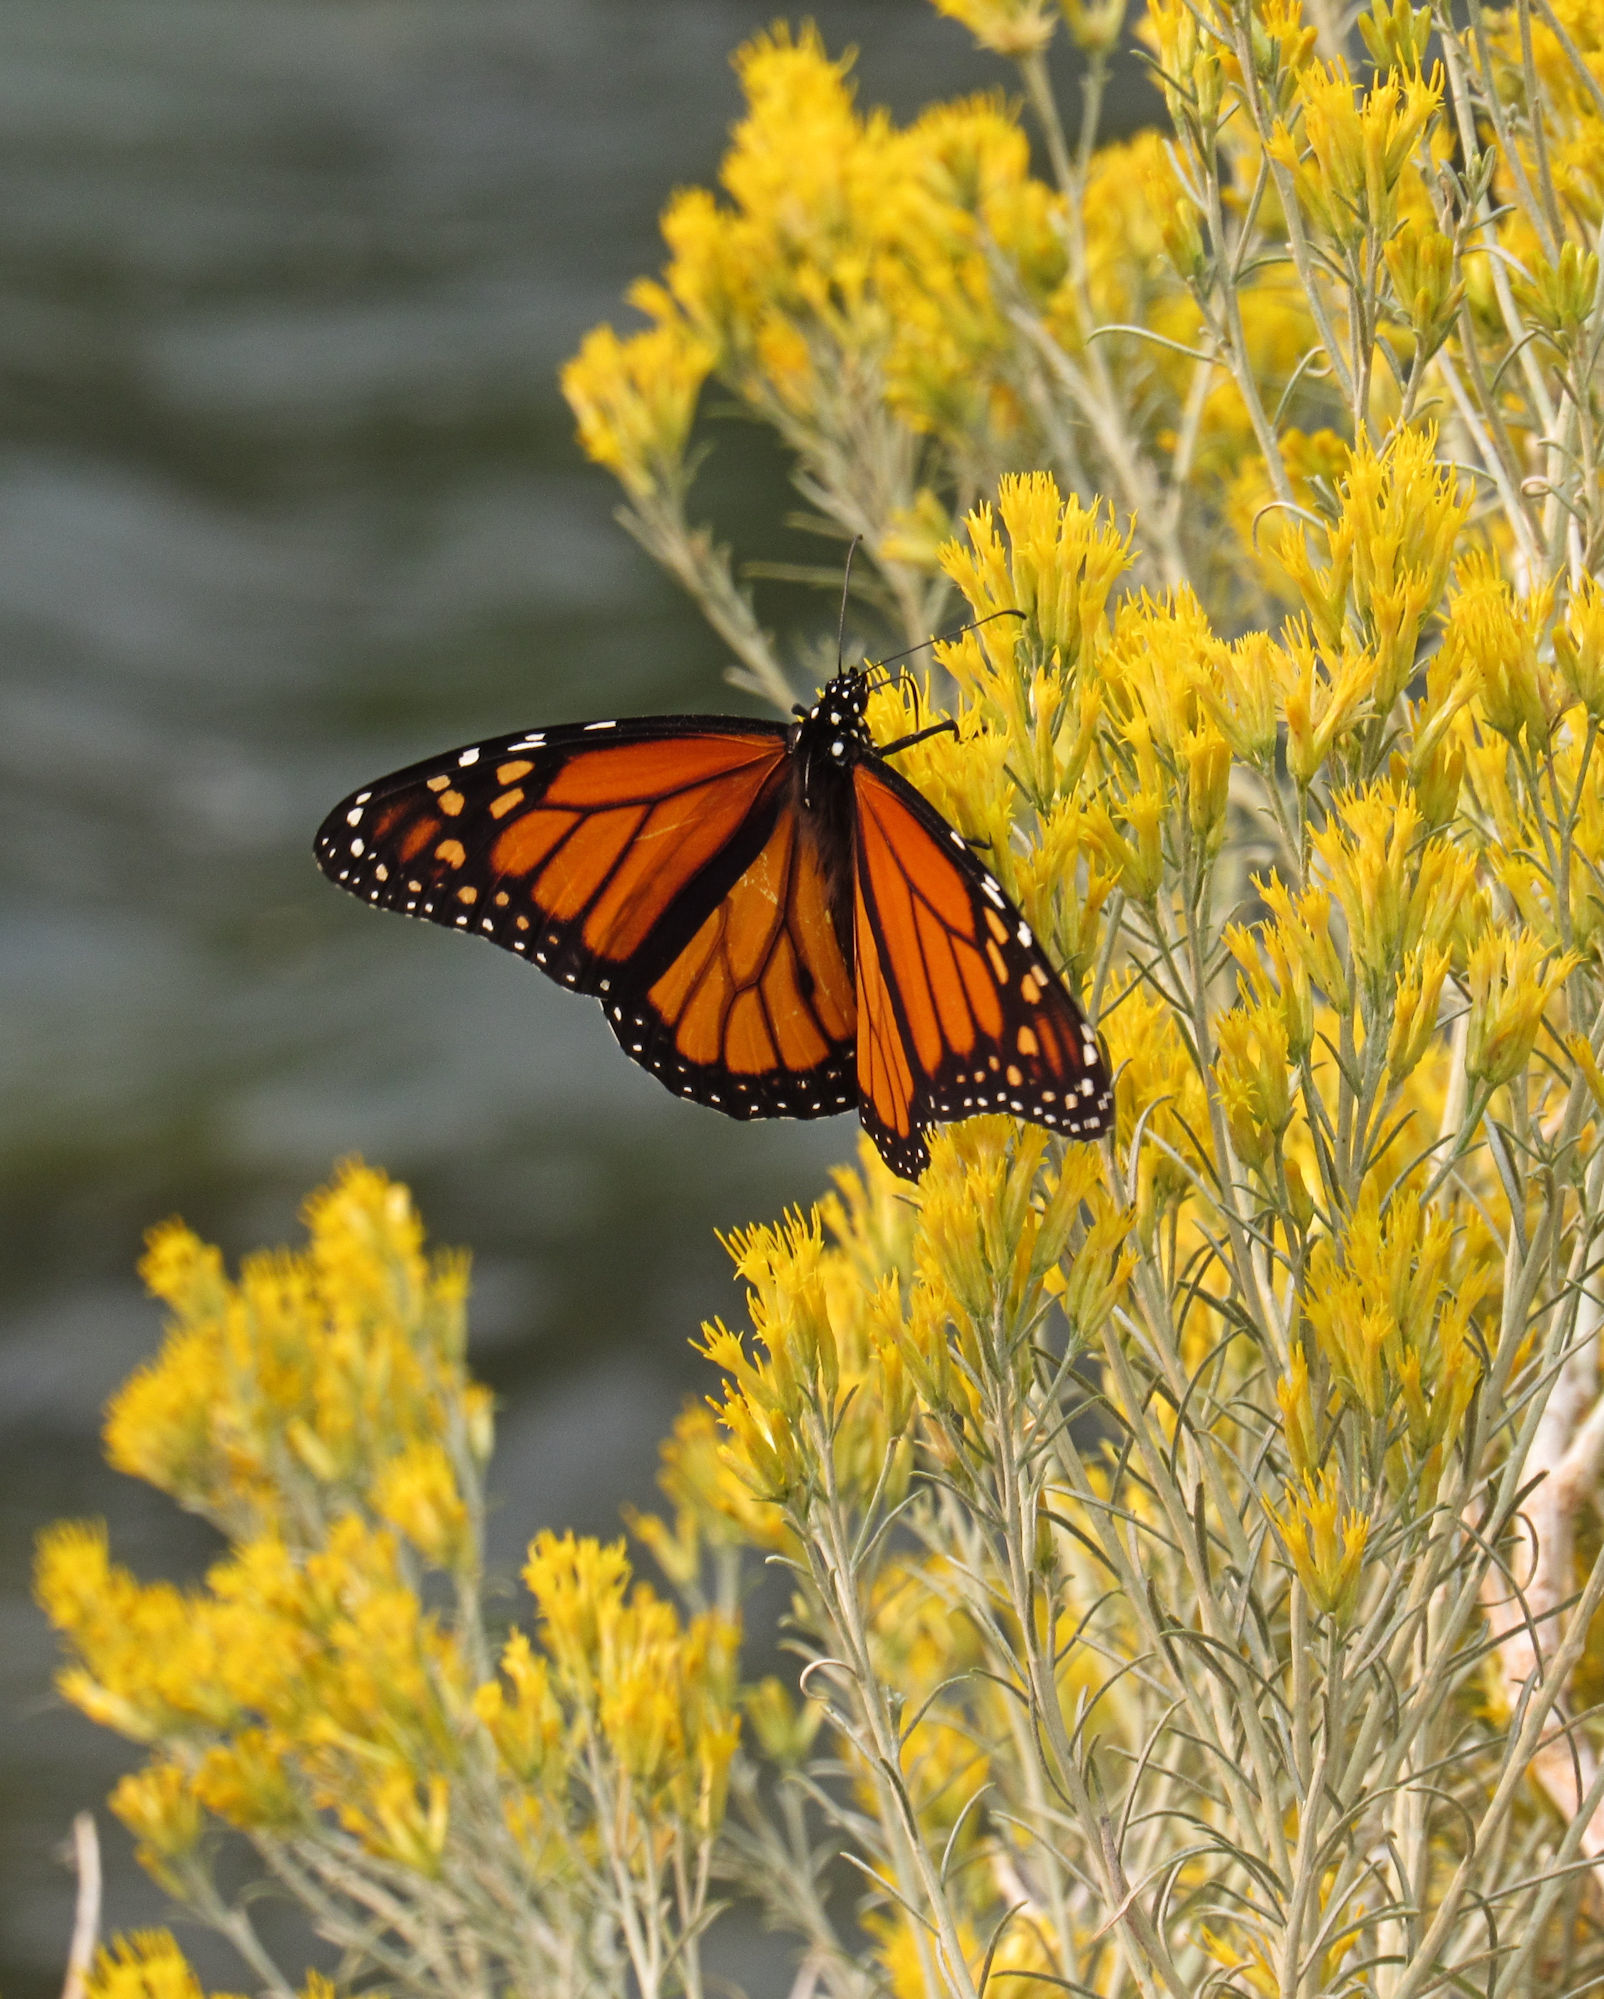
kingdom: Animalia
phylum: Arthropoda
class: Insecta
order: Lepidoptera
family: Nymphalidae
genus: Danaus
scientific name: Danaus plexippus
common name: Monarch
